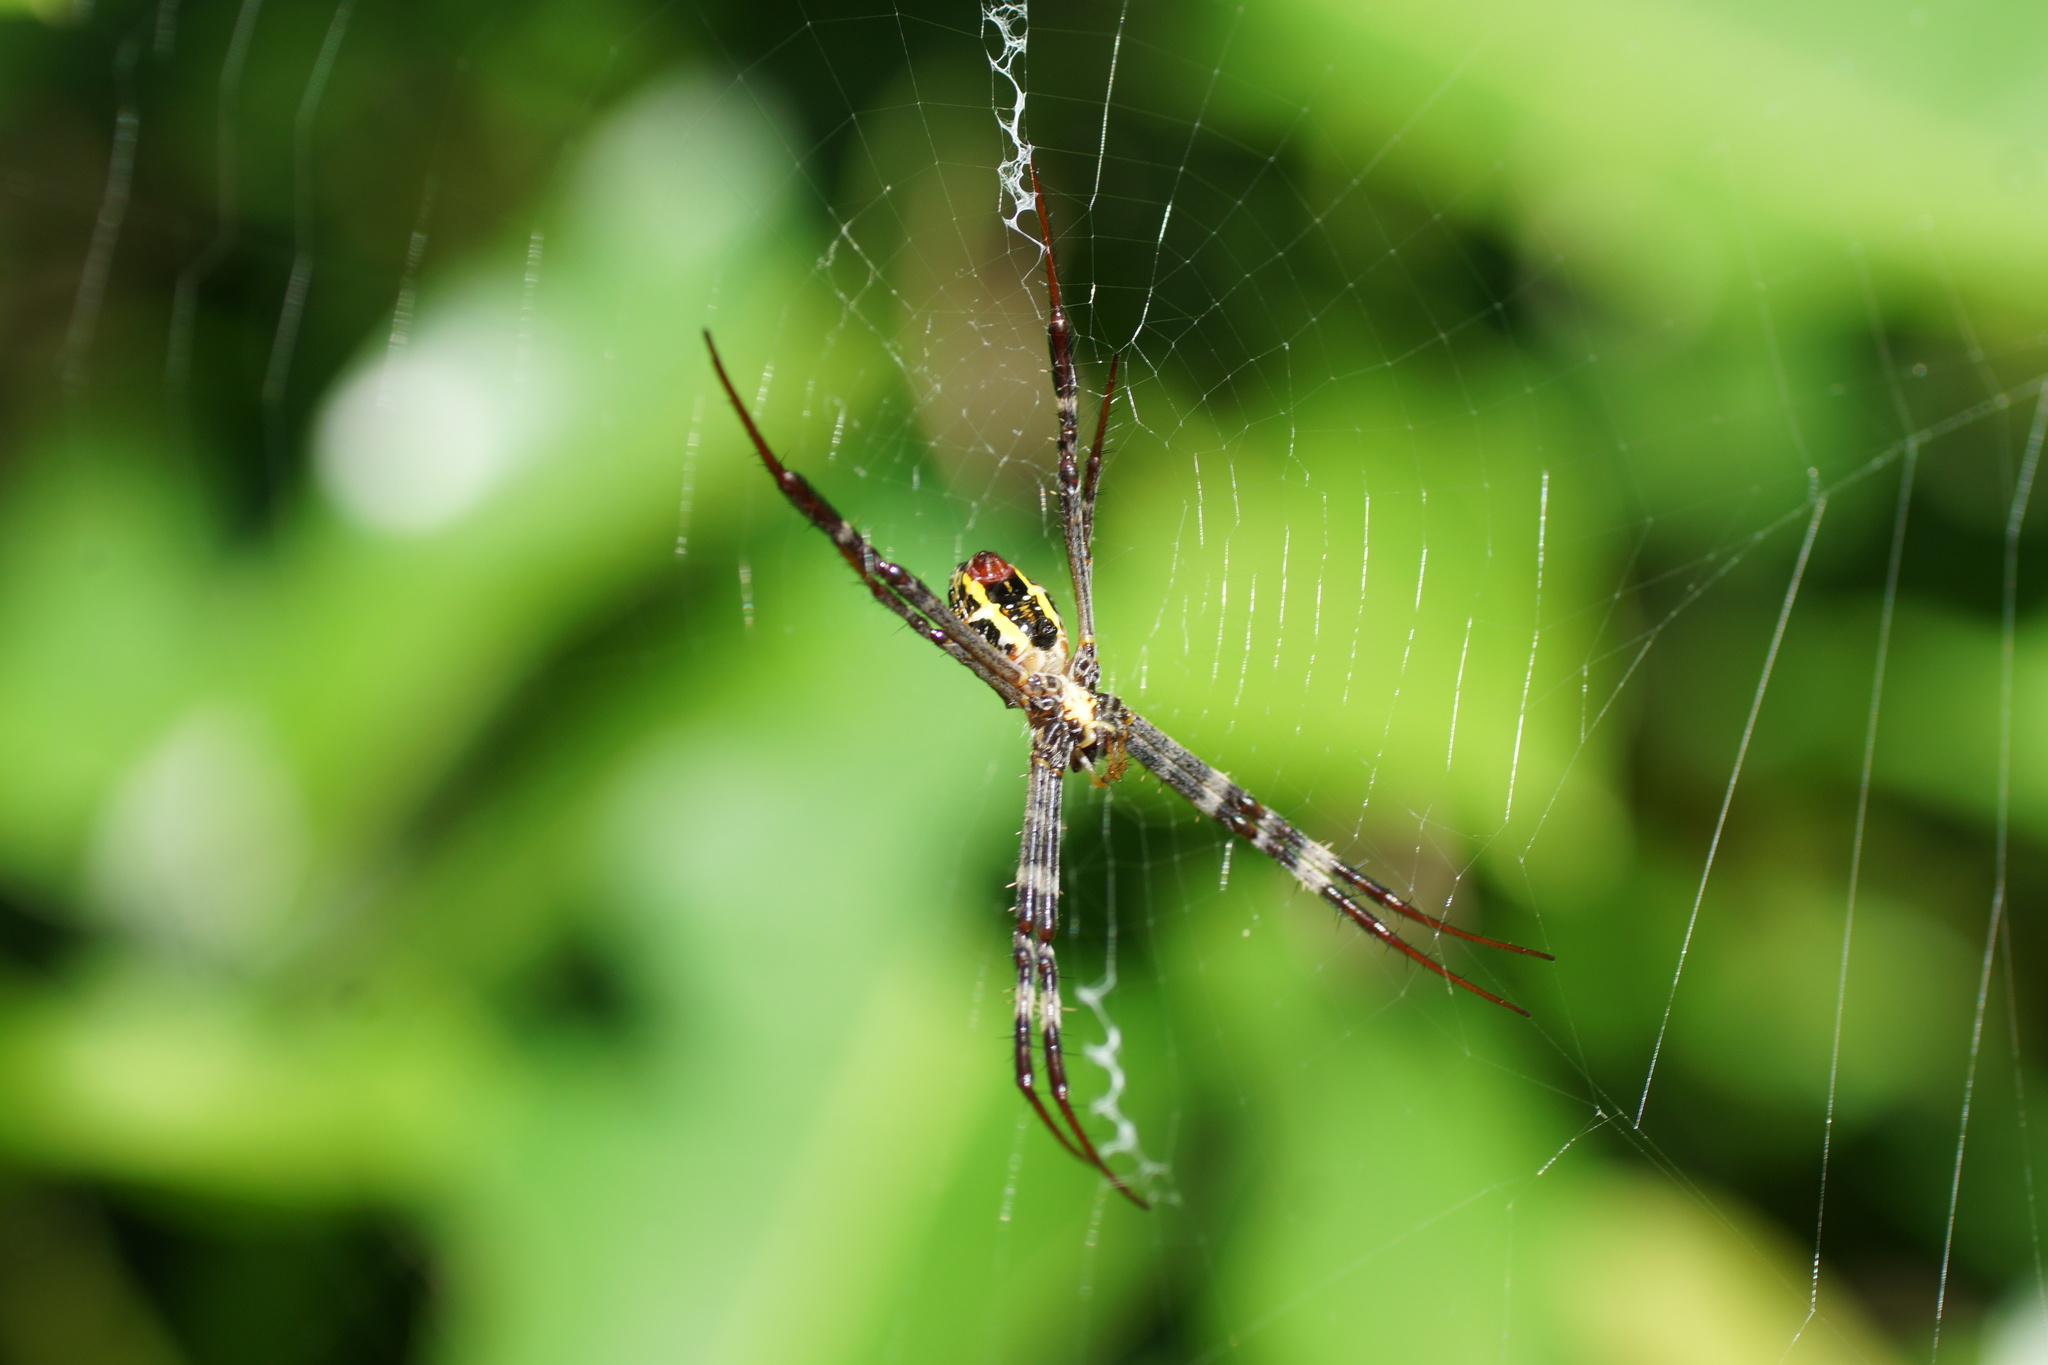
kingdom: Animalia
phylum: Arthropoda
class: Arachnida
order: Araneae
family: Araneidae
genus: Argiope
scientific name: Argiope picta
